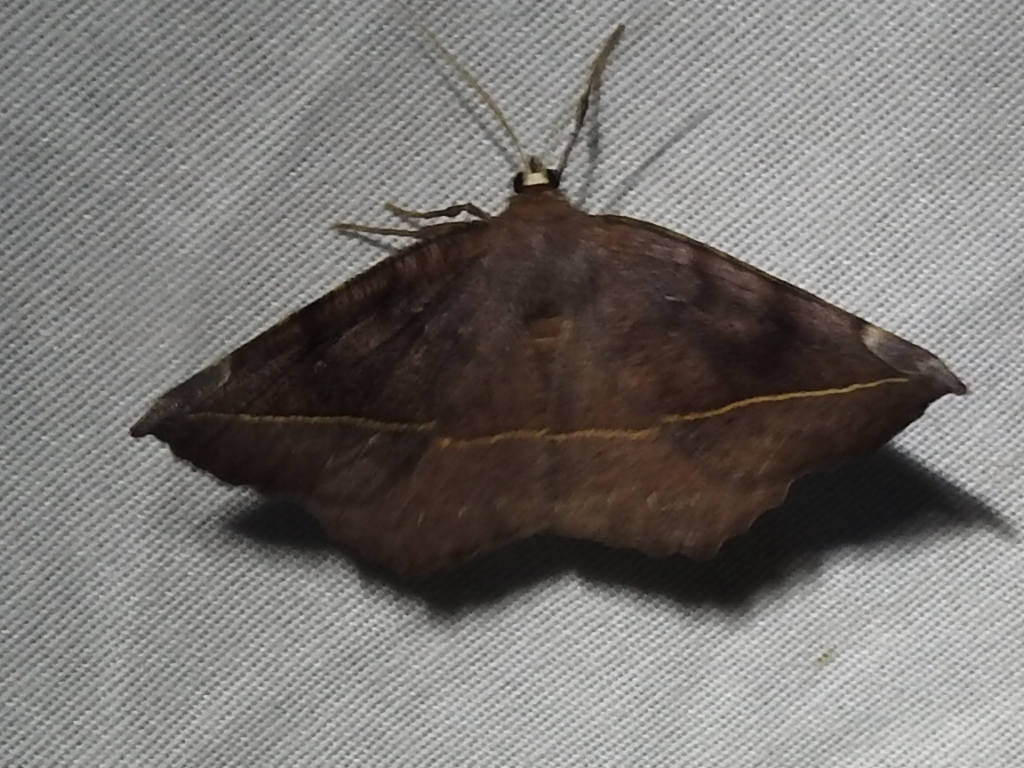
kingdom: Animalia
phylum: Arthropoda
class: Insecta
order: Lepidoptera
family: Geometridae
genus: Eutrapela
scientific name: Eutrapela clemataria
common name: Curved-toothed geometer
